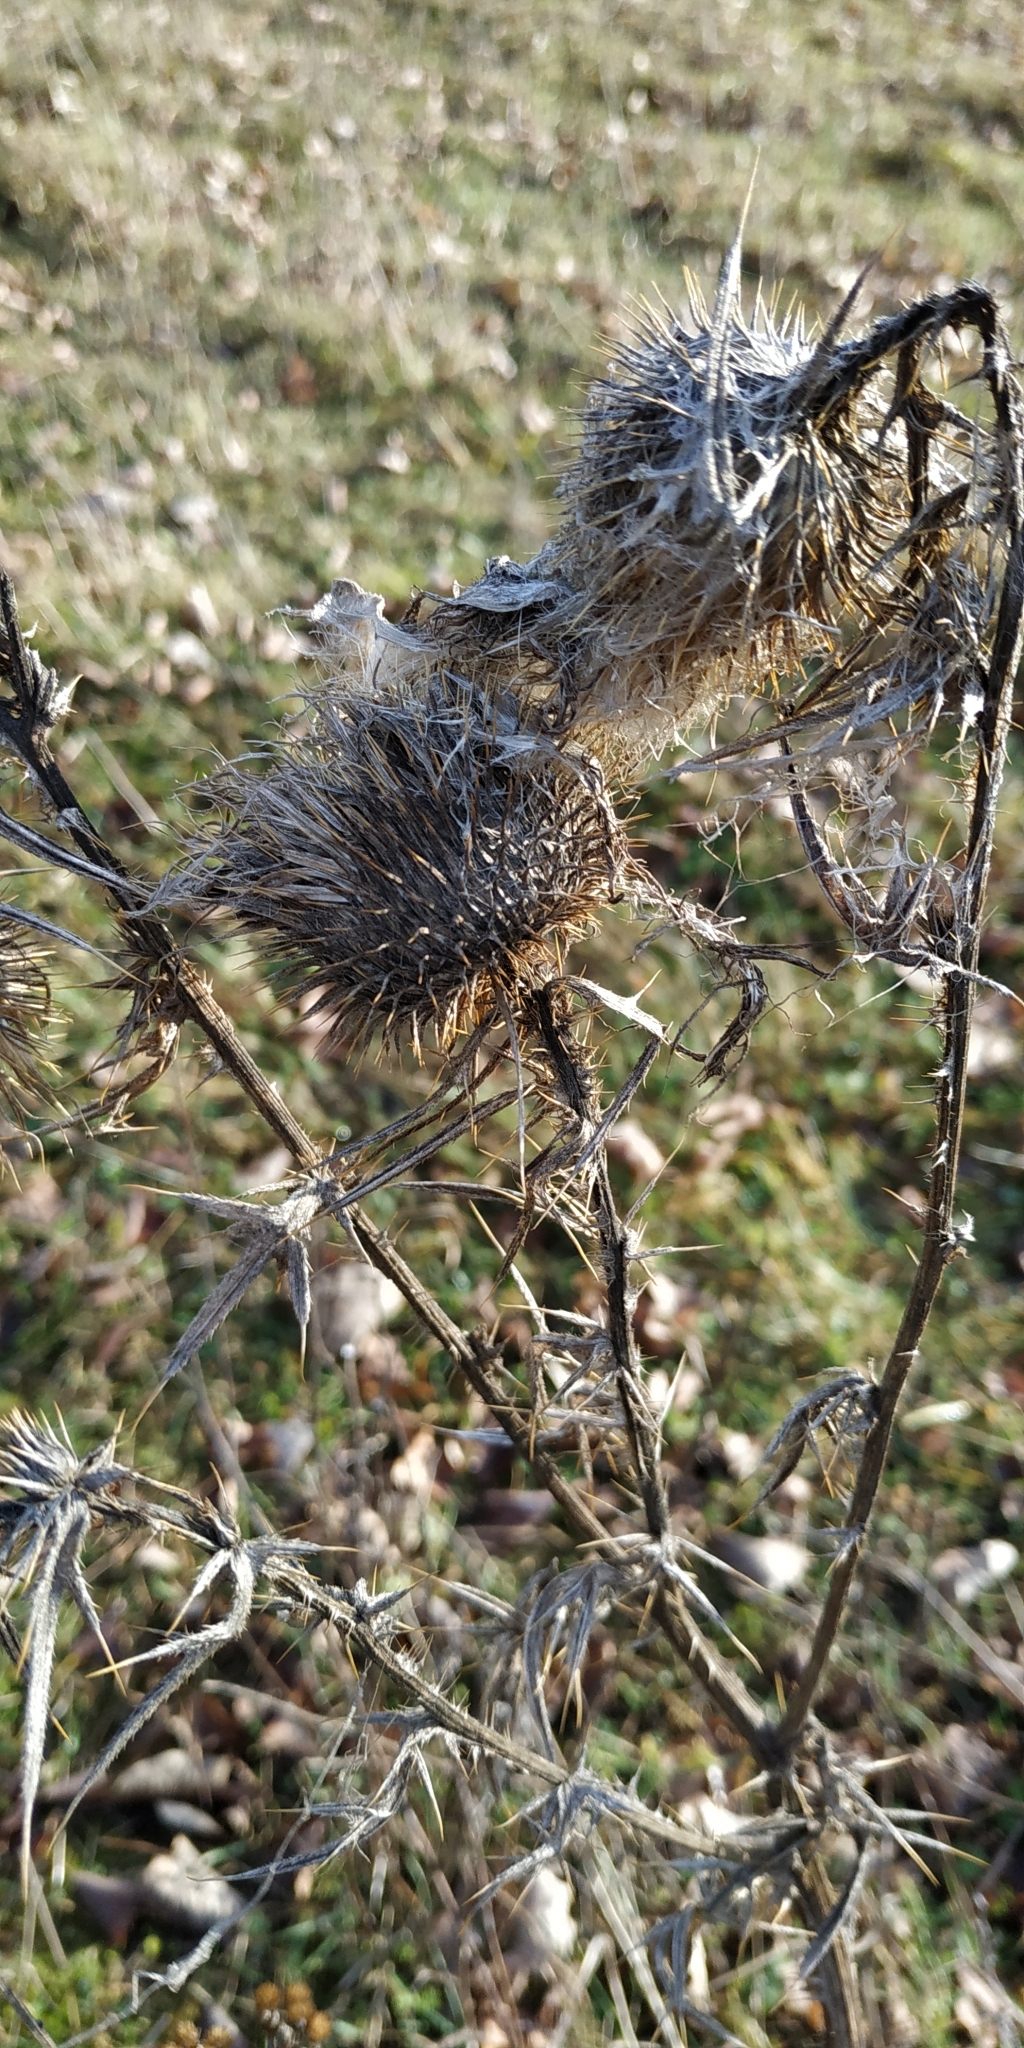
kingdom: Plantae
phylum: Tracheophyta
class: Magnoliopsida
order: Asterales
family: Asteraceae
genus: Cirsium
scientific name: Cirsium vulgare
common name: Bull thistle
